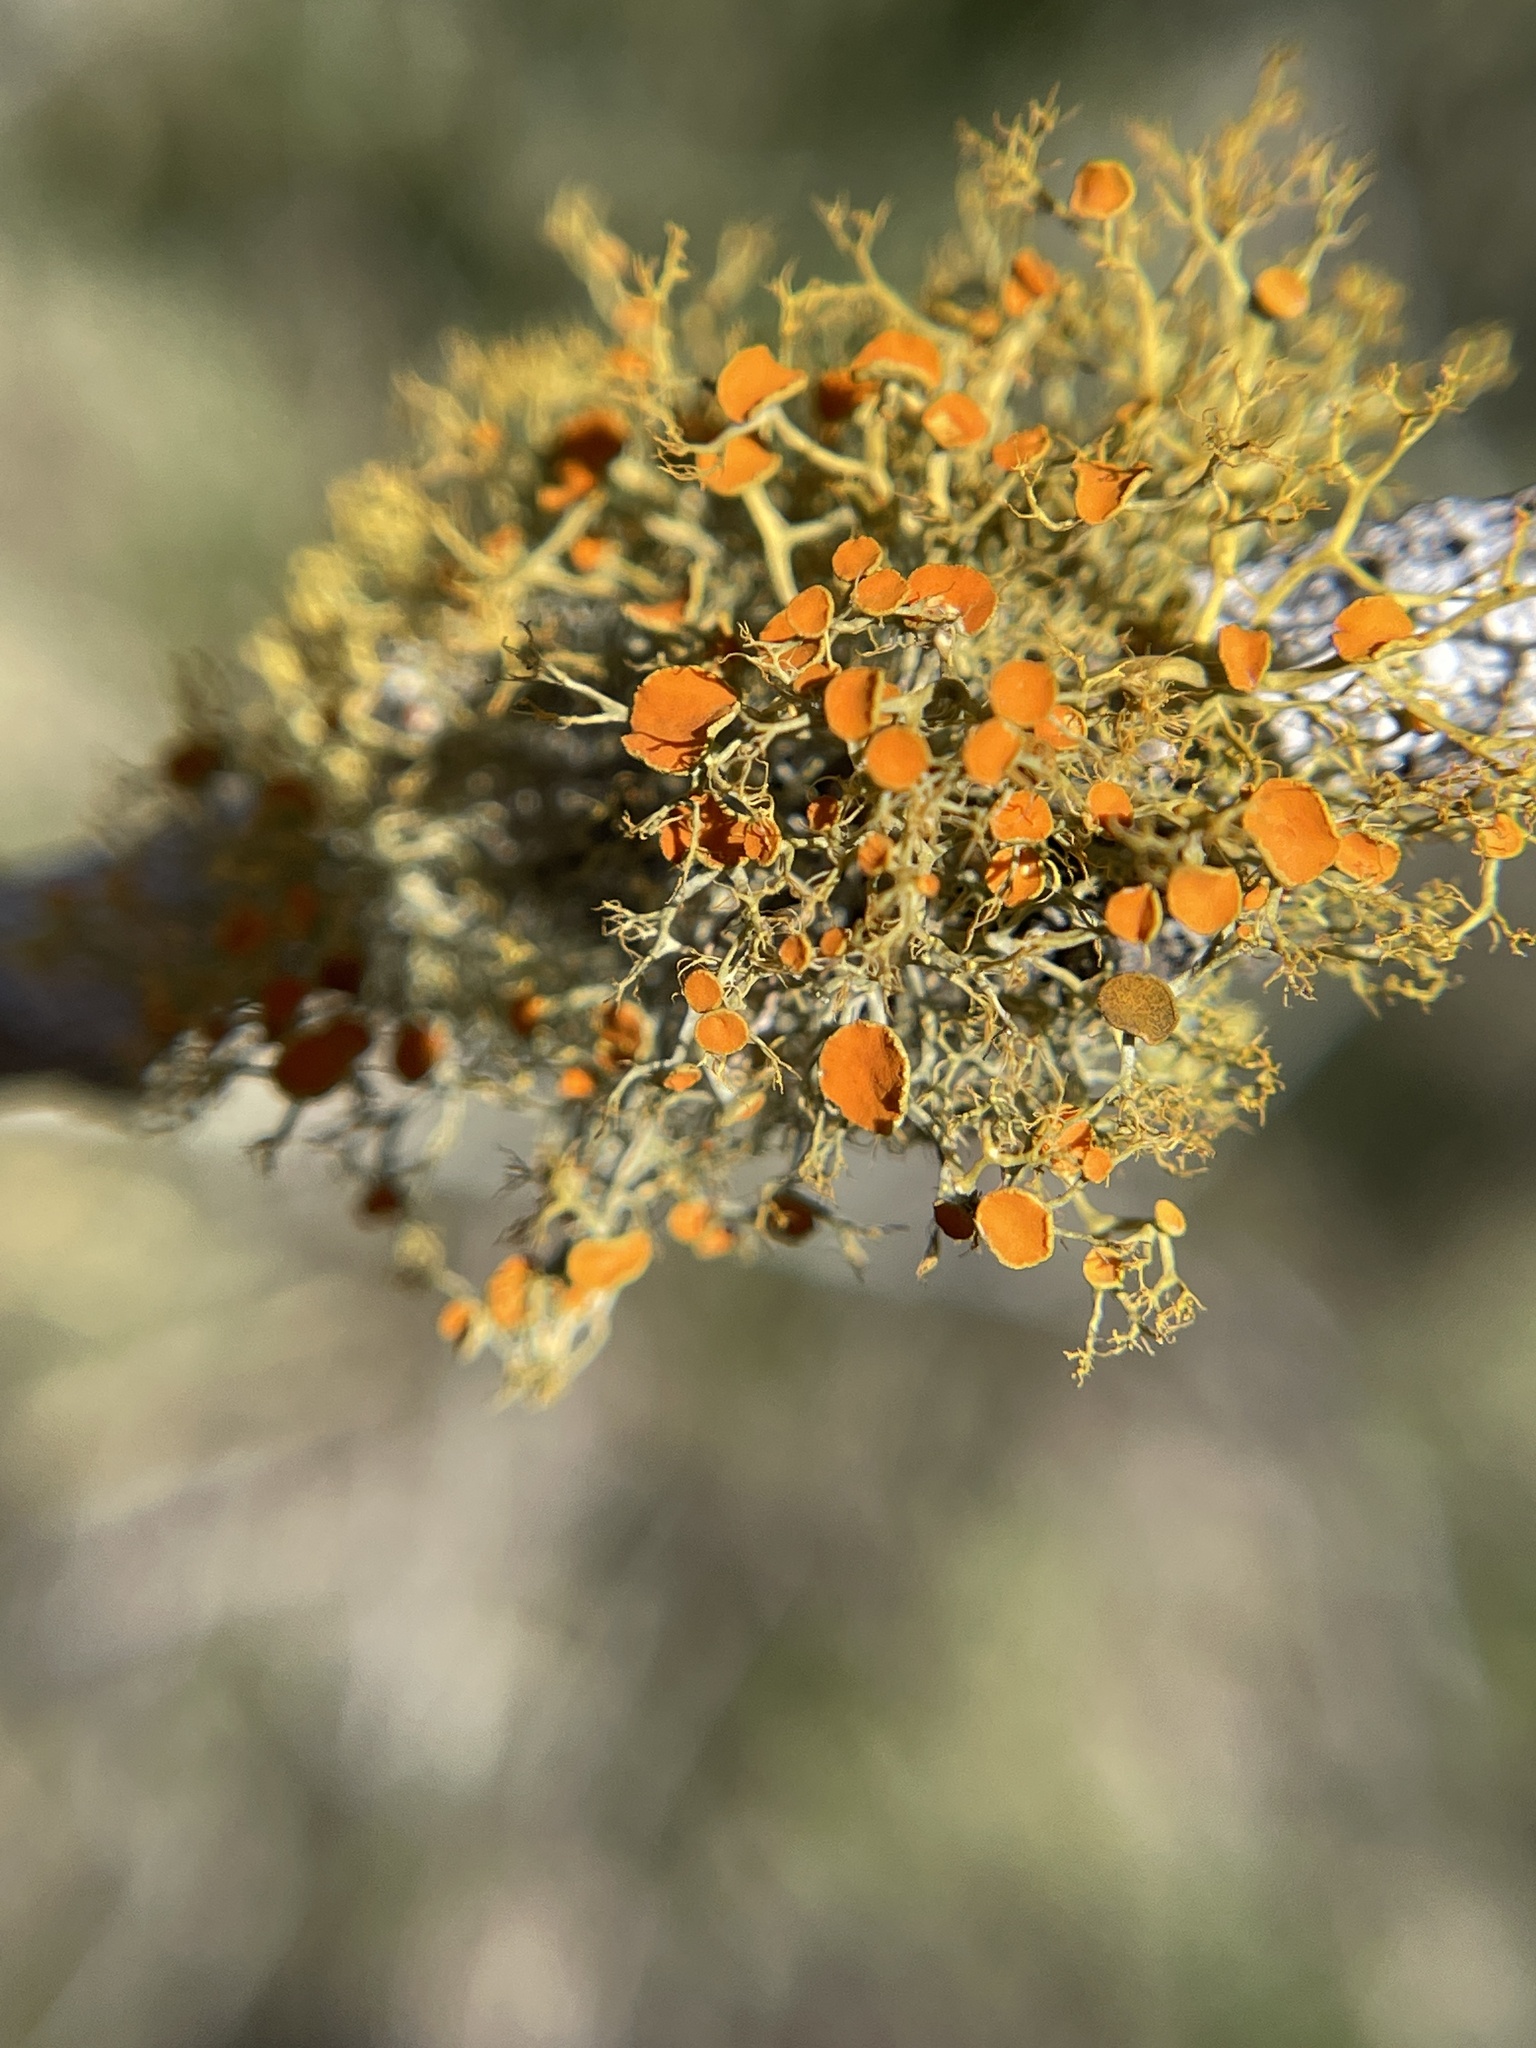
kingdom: Fungi
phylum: Ascomycota
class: Lecanoromycetes
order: Teloschistales
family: Teloschistaceae
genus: Teloschistes
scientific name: Teloschistes exilis
